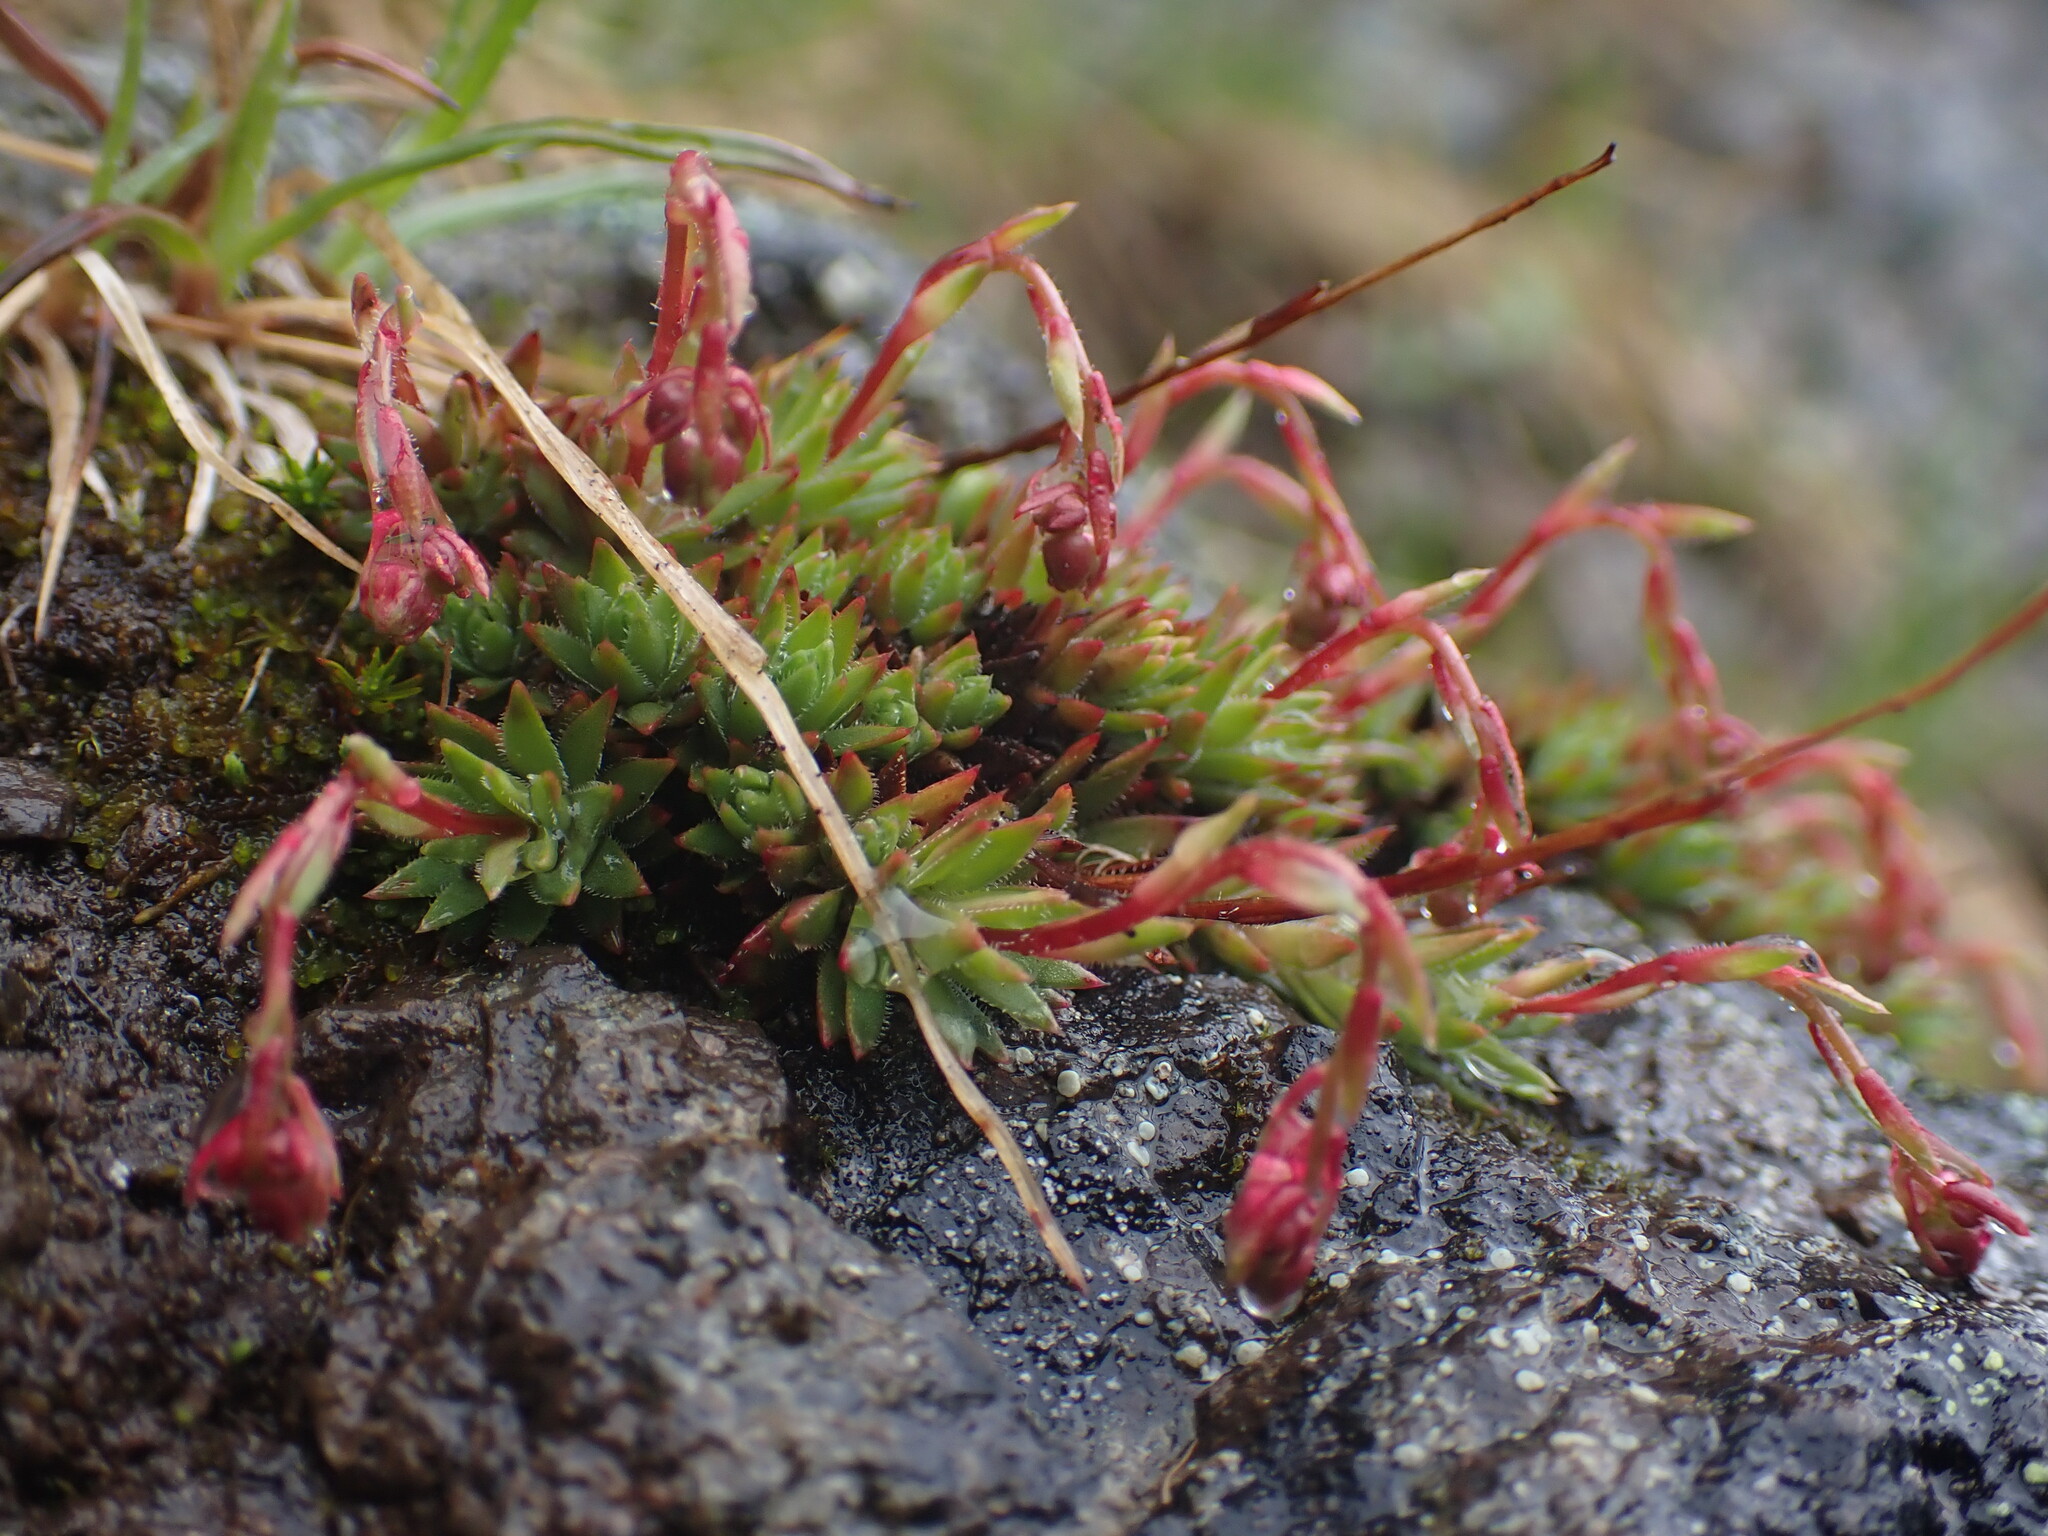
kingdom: Plantae
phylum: Tracheophyta
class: Magnoliopsida
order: Saxifragales
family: Saxifragaceae
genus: Saxifraga
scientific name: Saxifraga bronchialis
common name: Matted saxifrage
